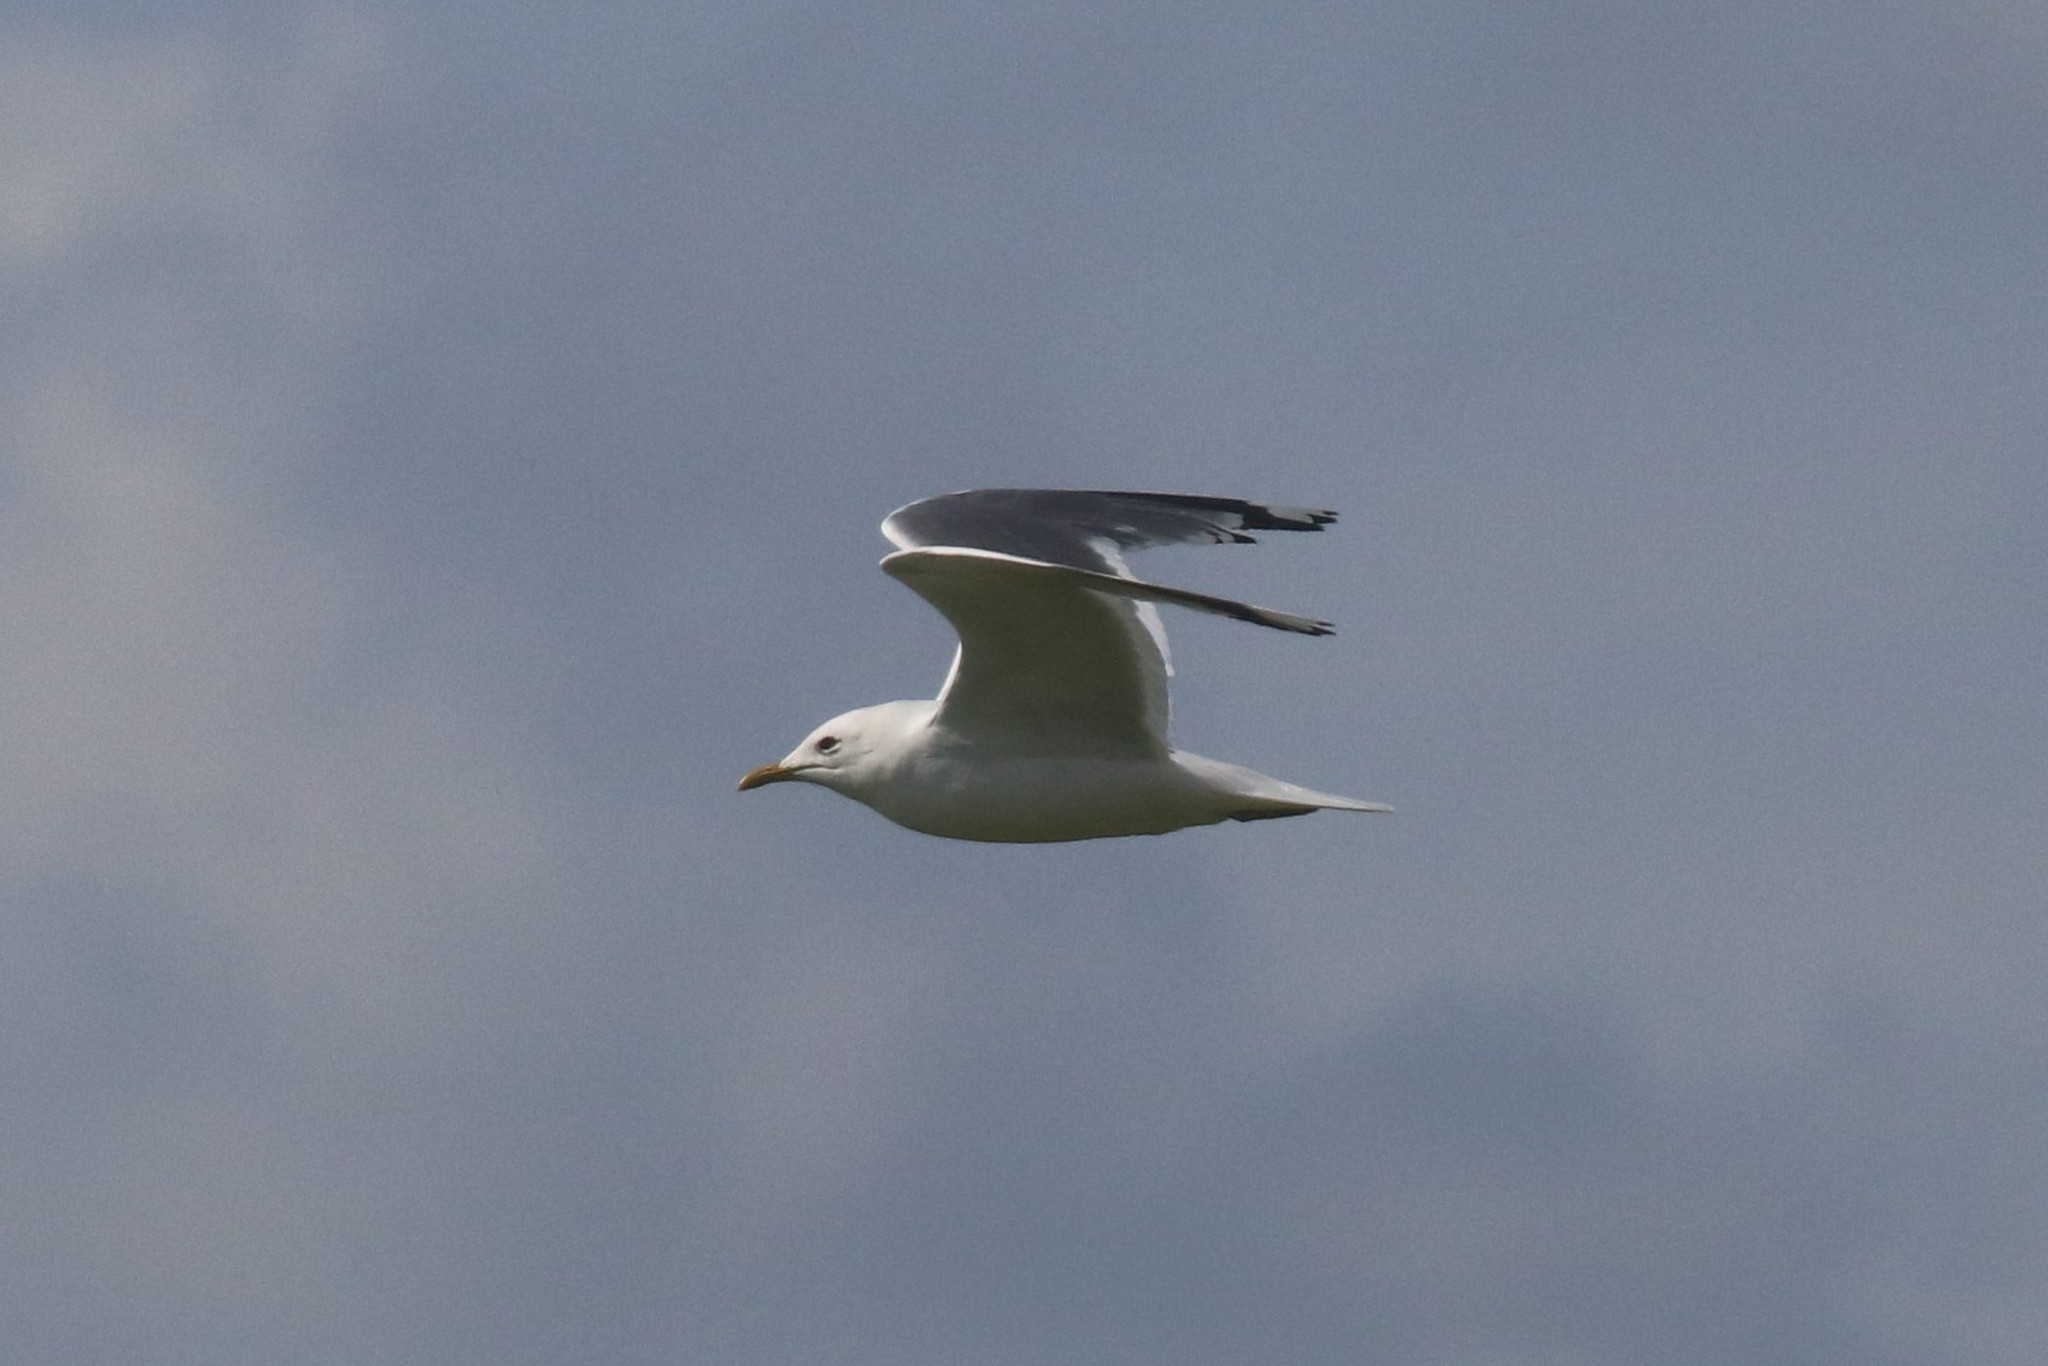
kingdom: Animalia
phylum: Chordata
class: Aves
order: Charadriiformes
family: Laridae
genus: Larus
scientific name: Larus canus
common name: Mew gull
